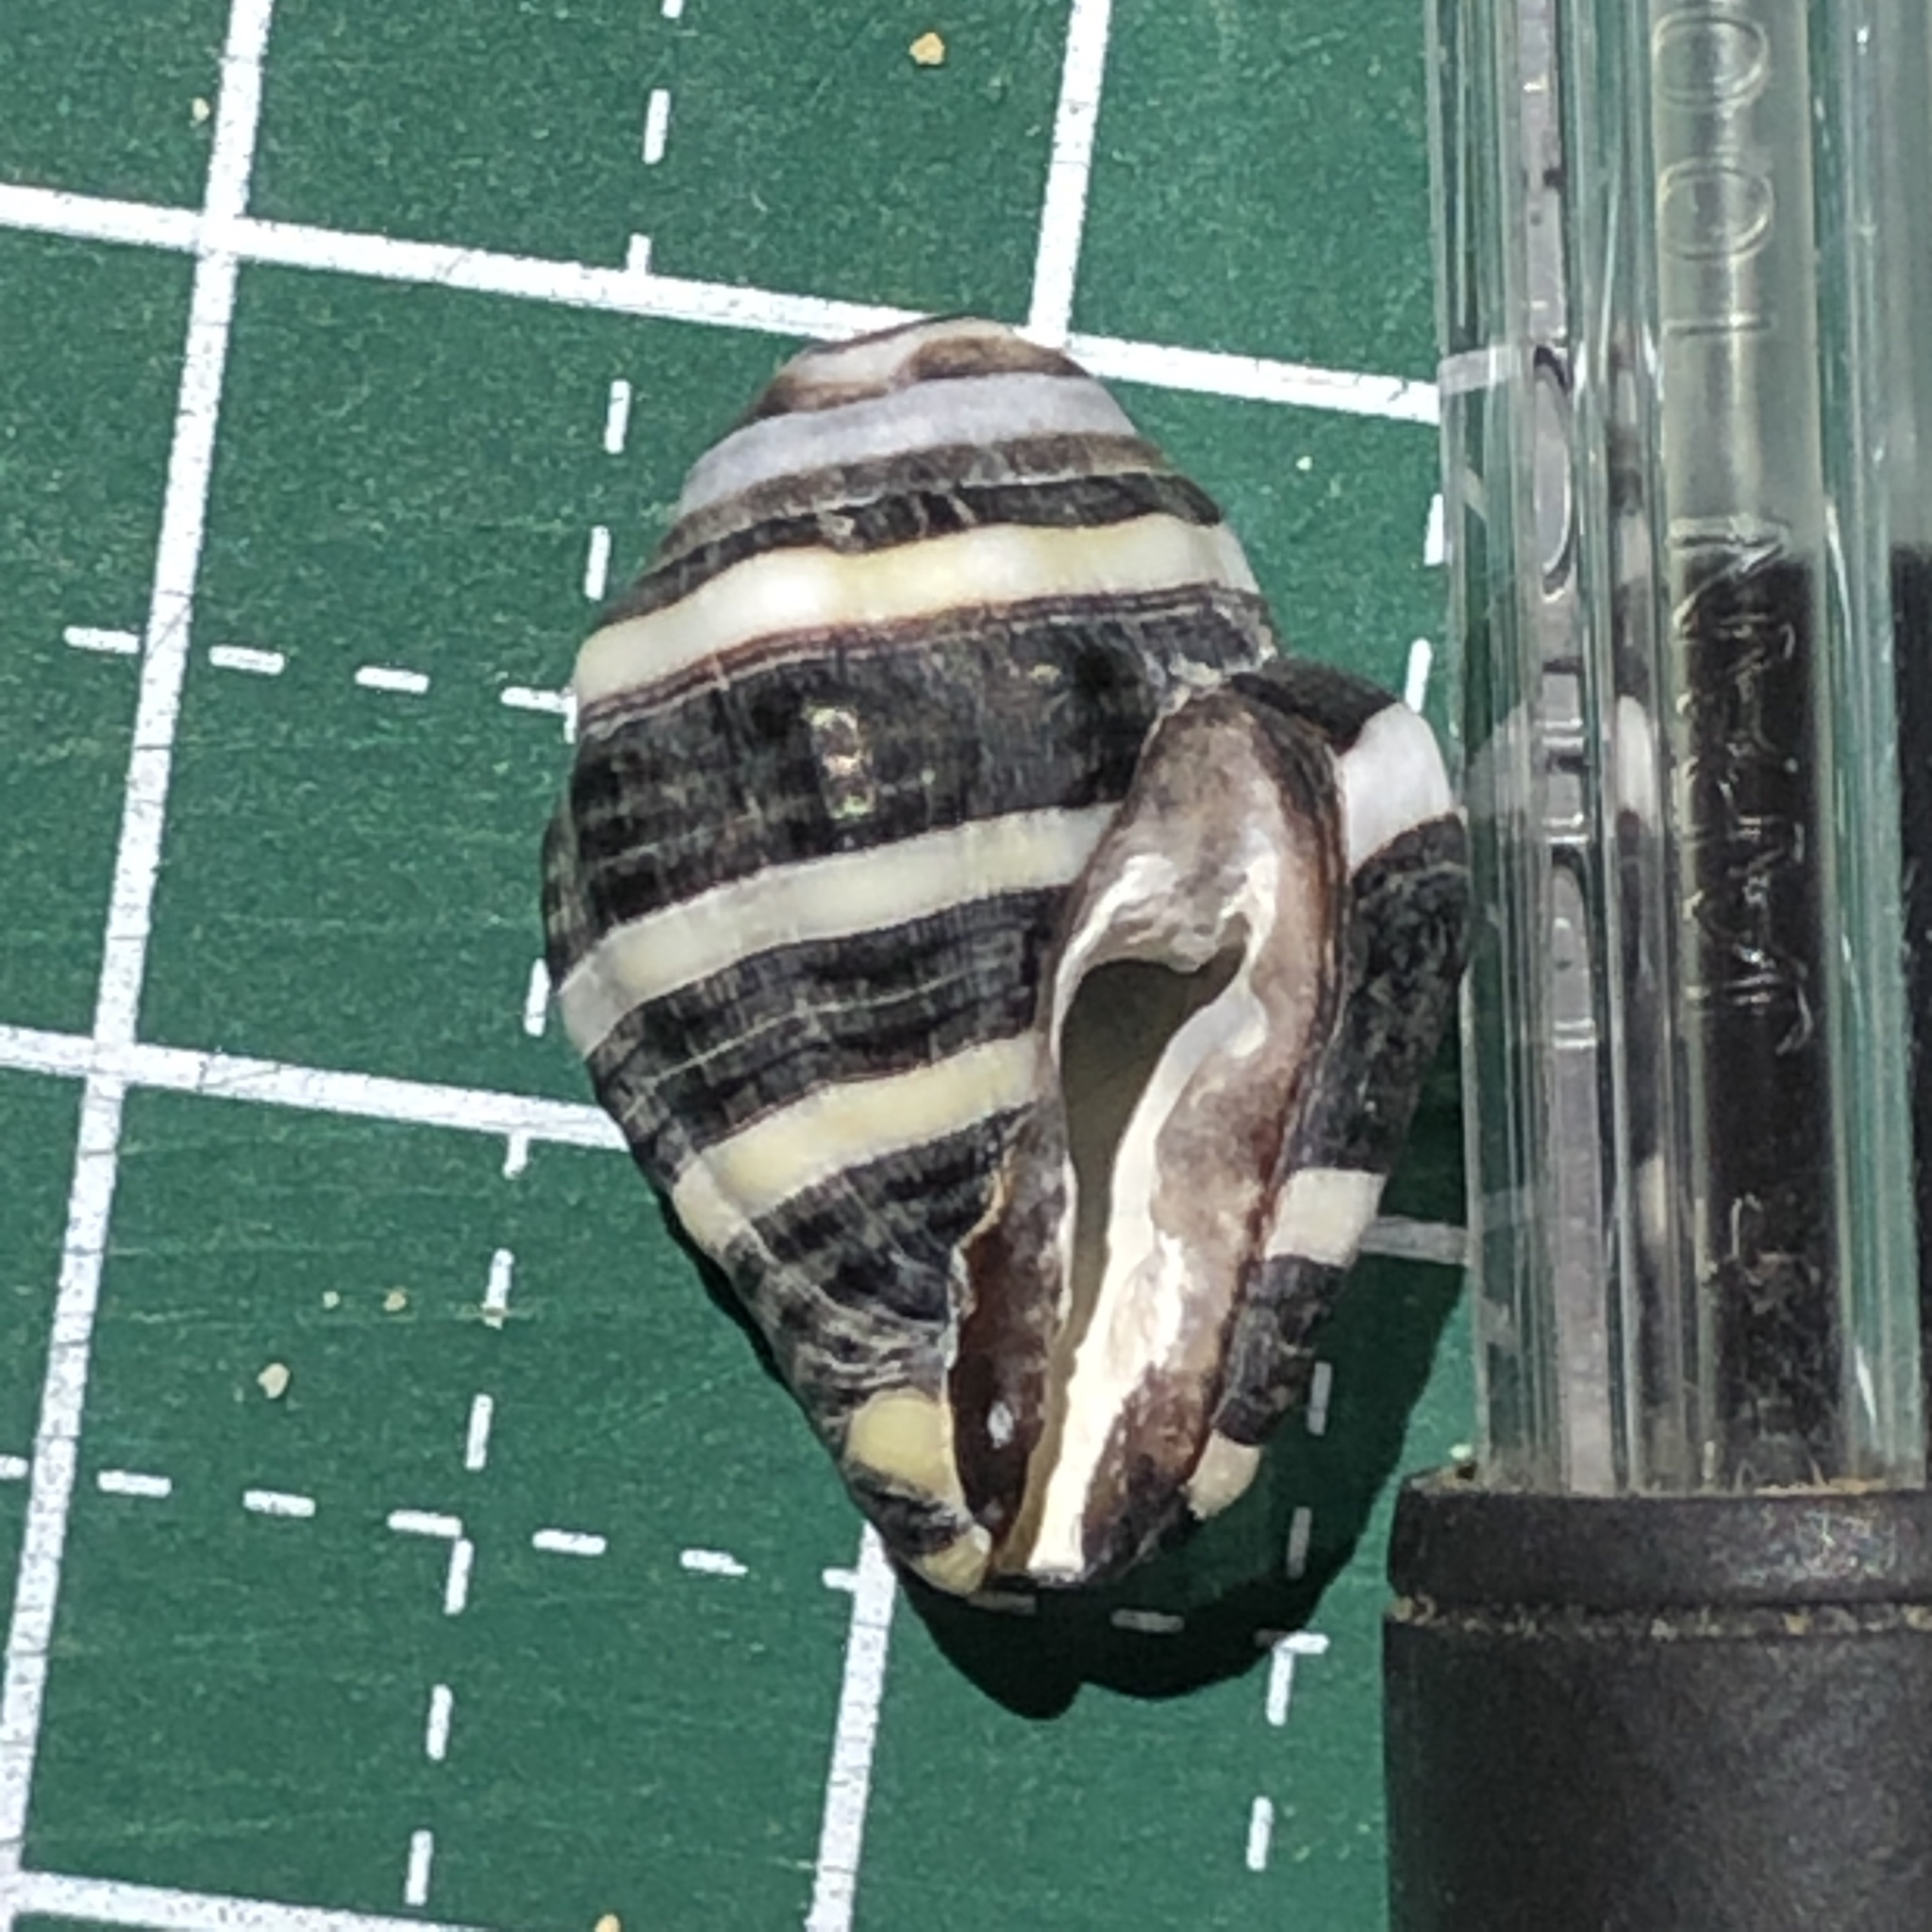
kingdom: Animalia
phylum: Mollusca
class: Gastropoda
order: Neogastropoda
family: Pisaniidae
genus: Engina
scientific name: Engina mendicaria
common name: Bumble bee snail
